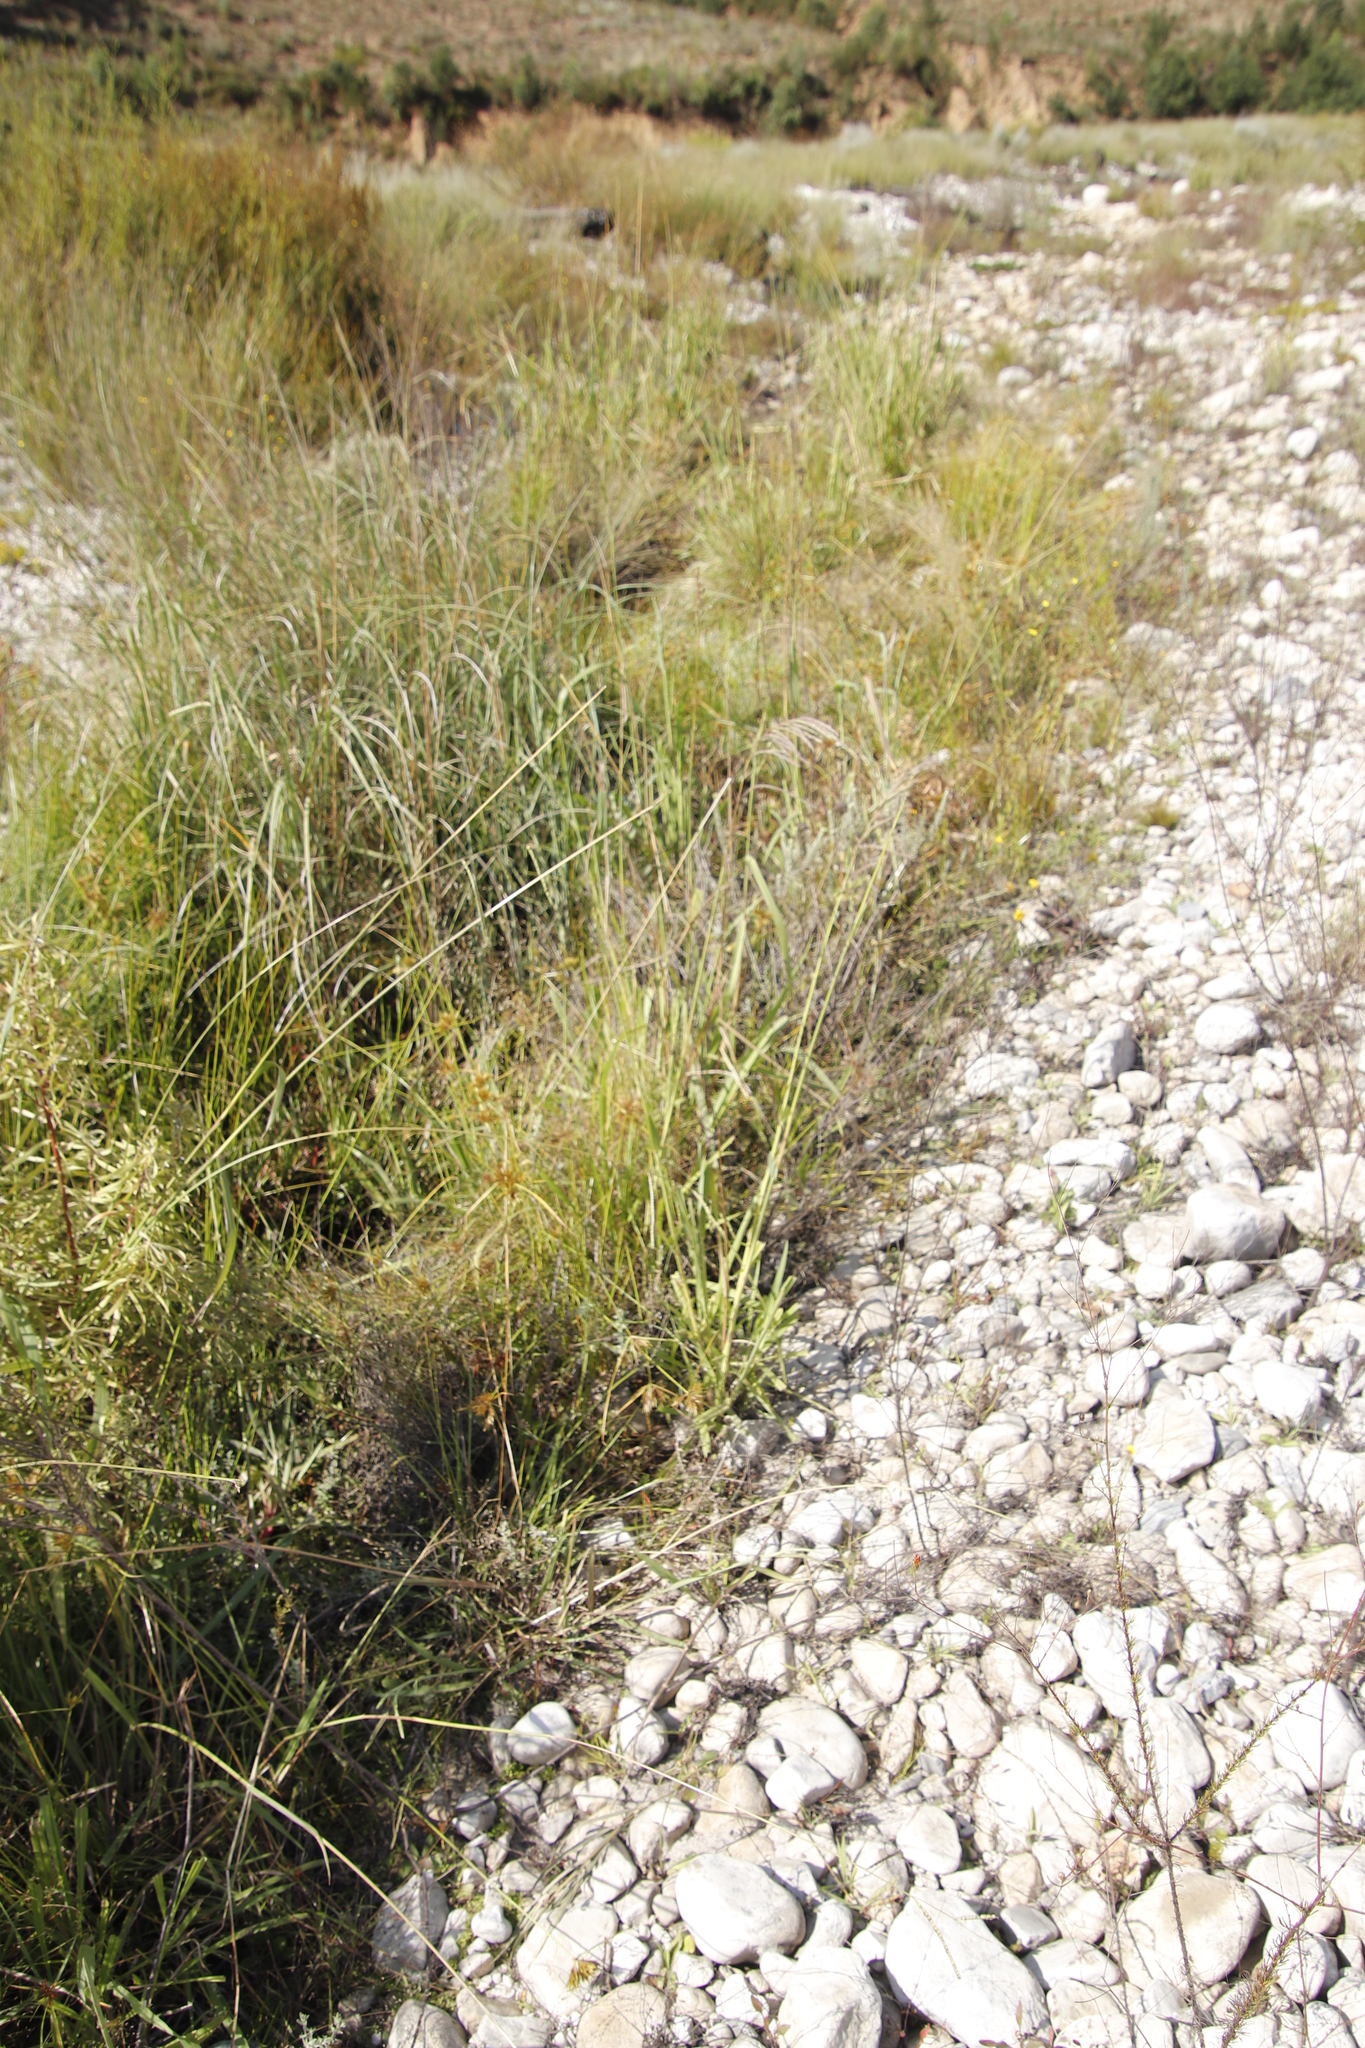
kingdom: Plantae
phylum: Tracheophyta
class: Liliopsida
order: Poales
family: Poaceae
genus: Paspalum
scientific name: Paspalum urvillei
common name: Vasey's grass
